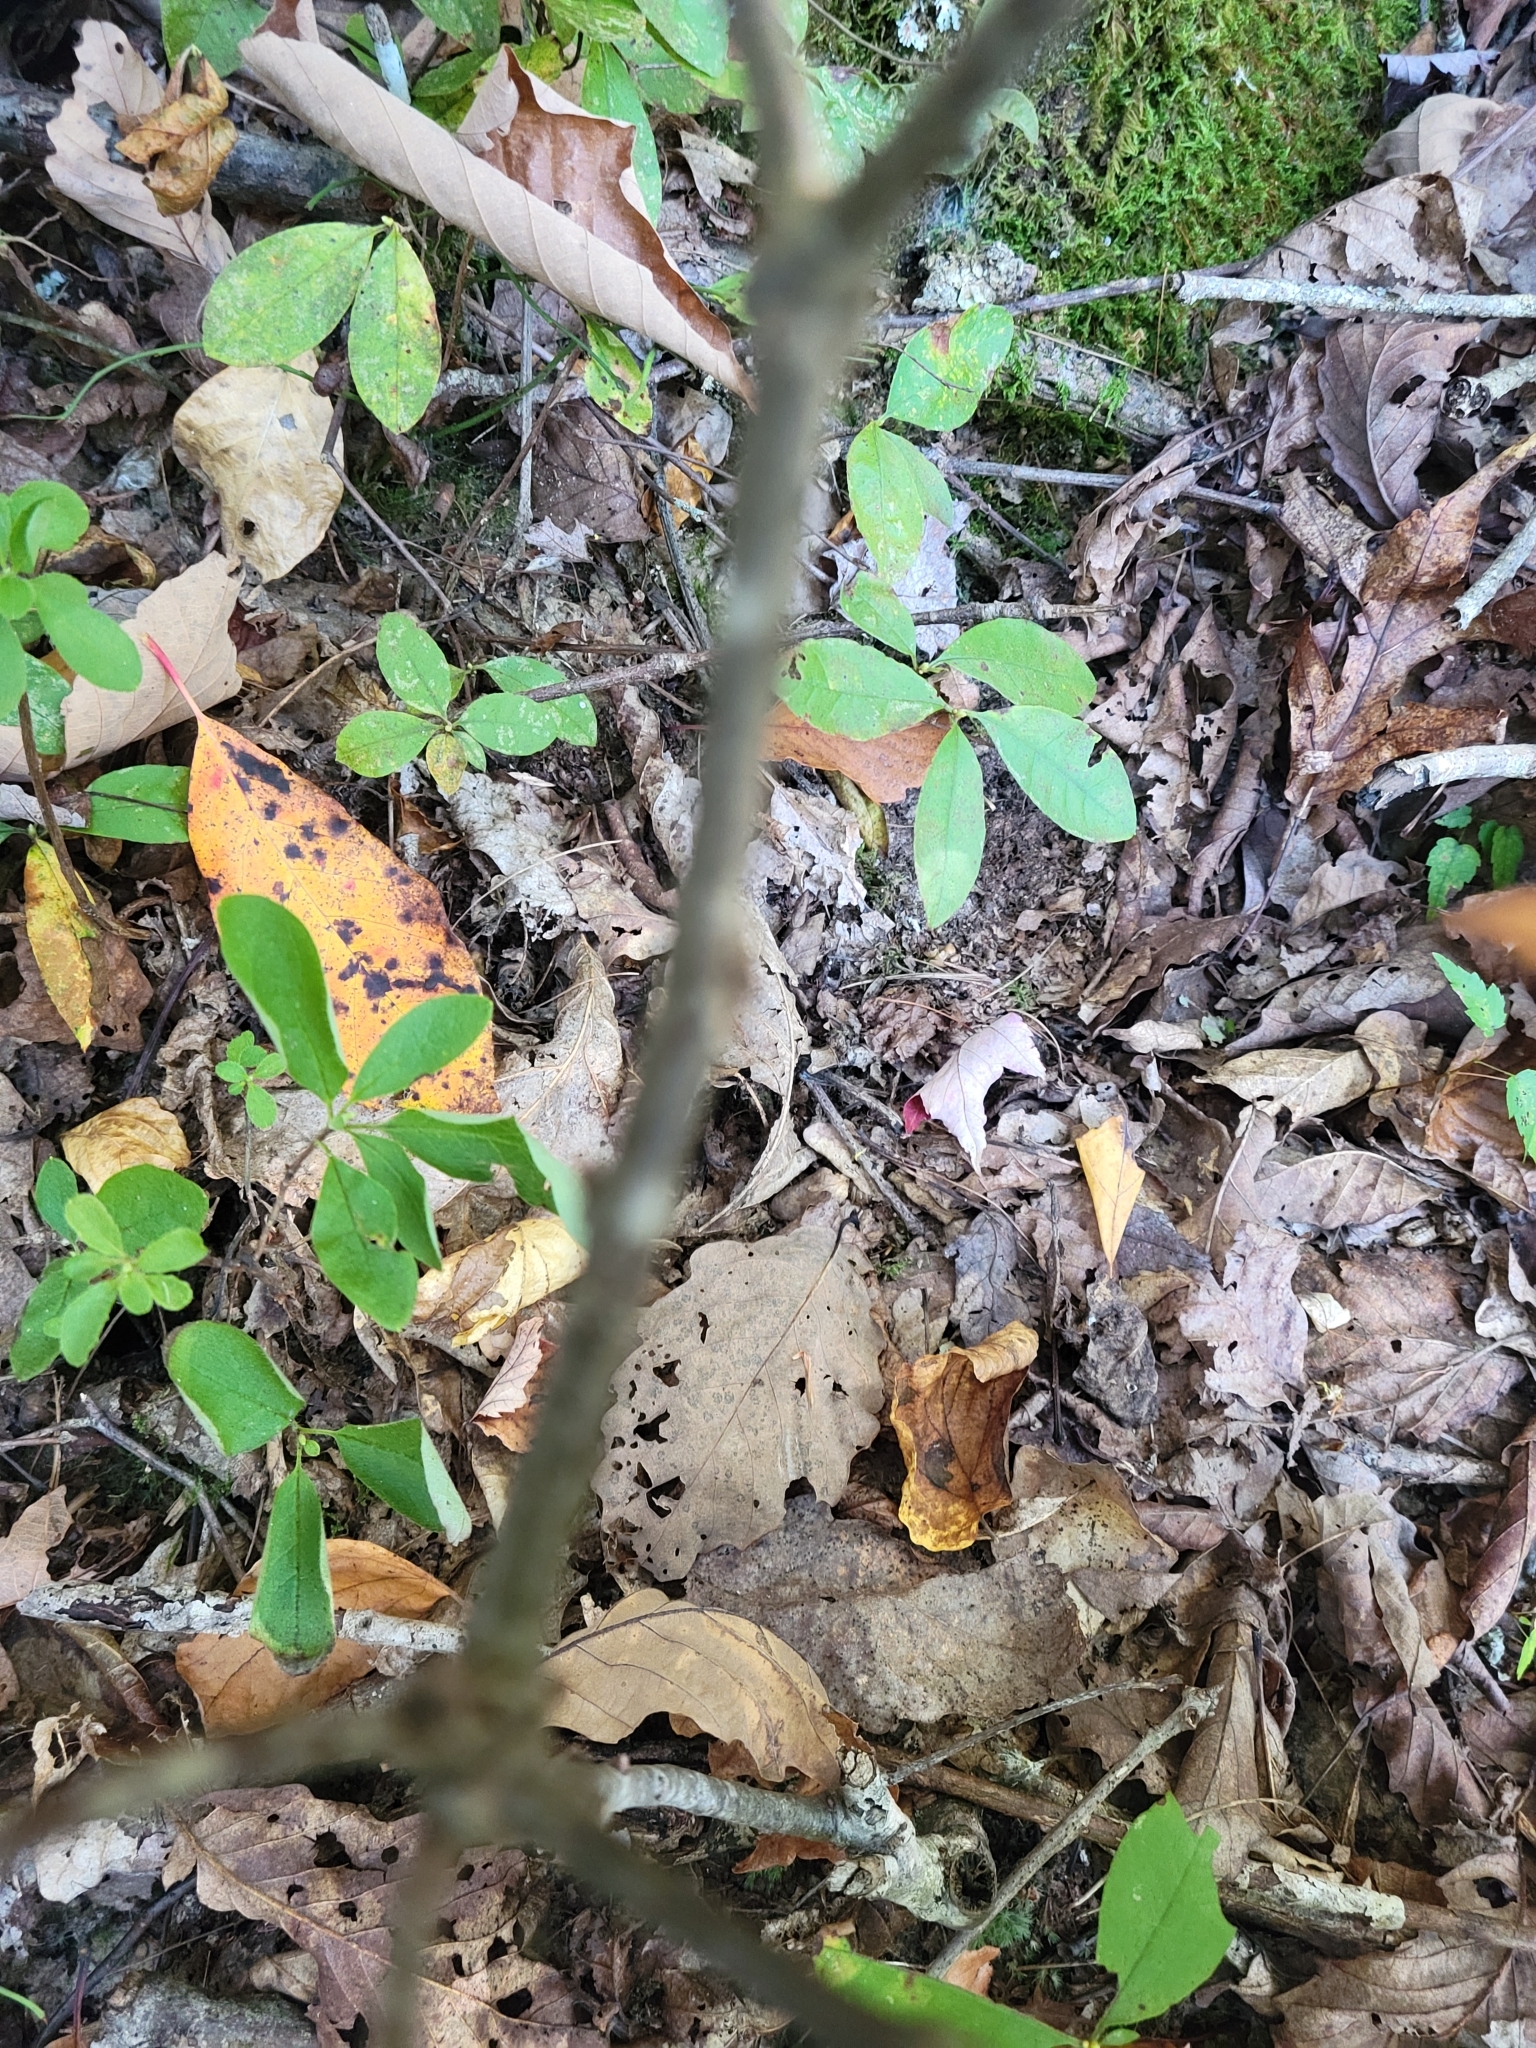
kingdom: Plantae
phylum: Tracheophyta
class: Magnoliopsida
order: Fagales
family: Fagaceae
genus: Quercus
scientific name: Quercus rubra
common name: Red oak
